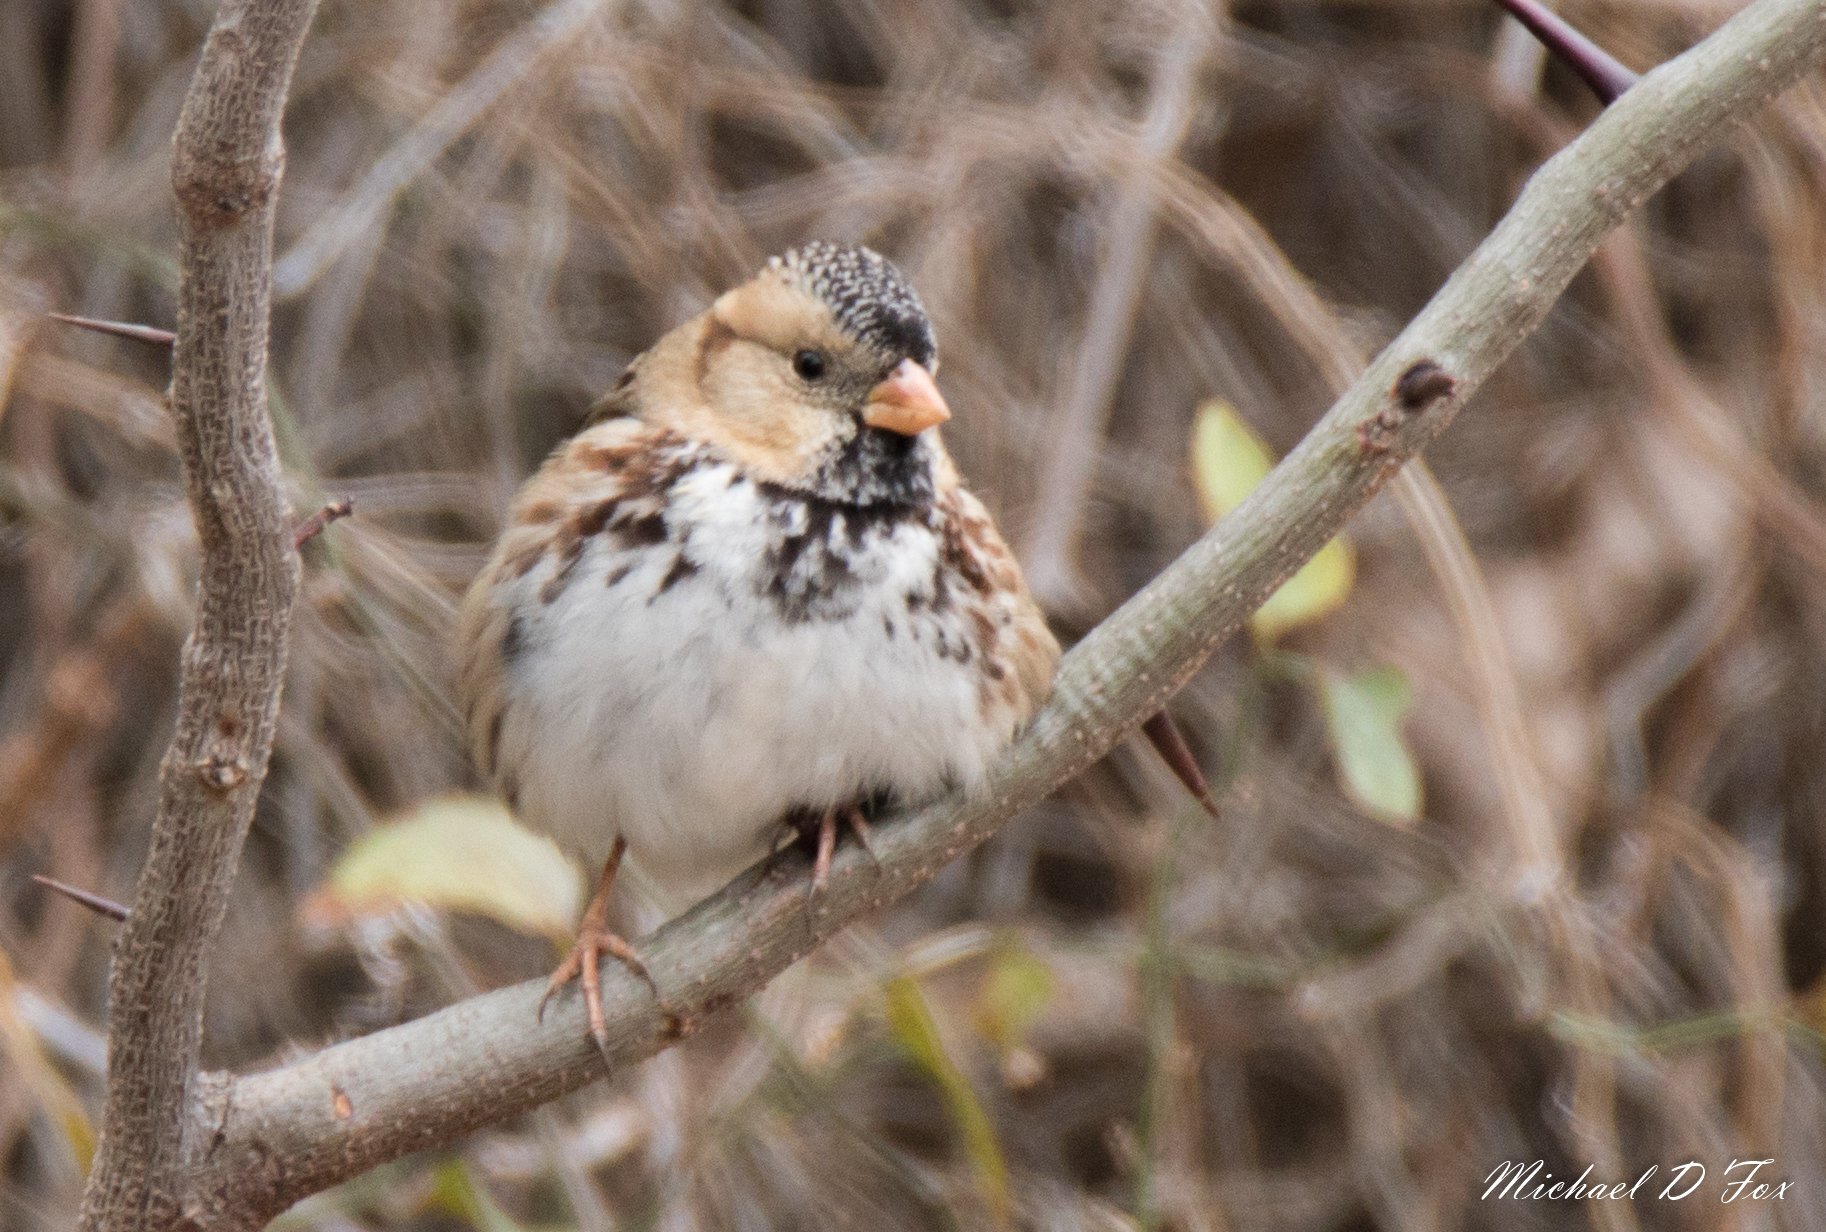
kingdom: Animalia
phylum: Chordata
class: Aves
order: Passeriformes
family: Passerellidae
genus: Zonotrichia
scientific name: Zonotrichia querula
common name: Harris's sparrow
